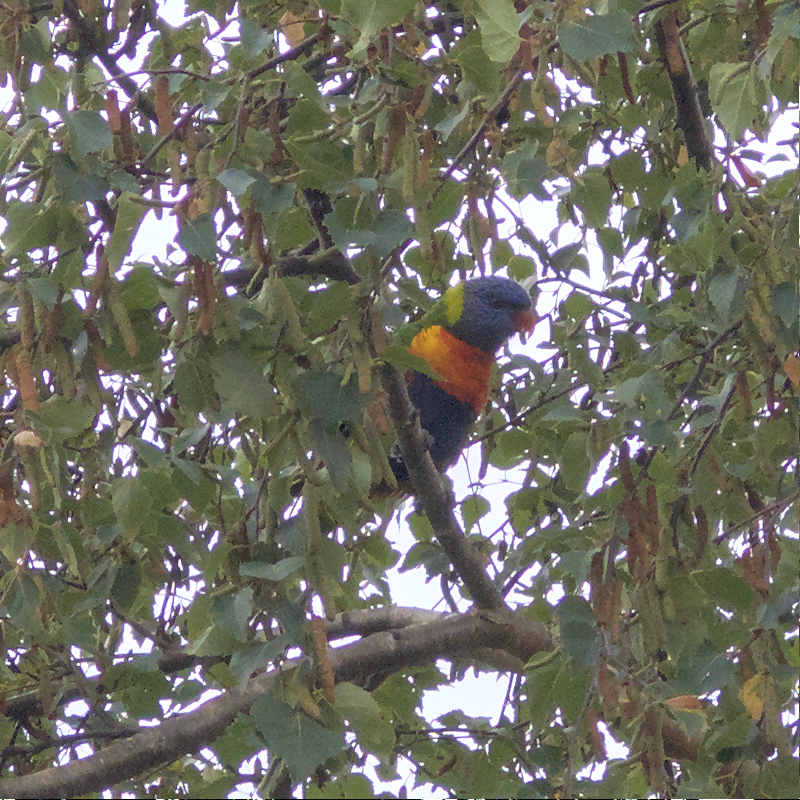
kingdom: Animalia
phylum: Chordata
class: Aves
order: Psittaciformes
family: Psittacidae
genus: Trichoglossus
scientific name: Trichoglossus haematodus
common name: Coconut lorikeet
